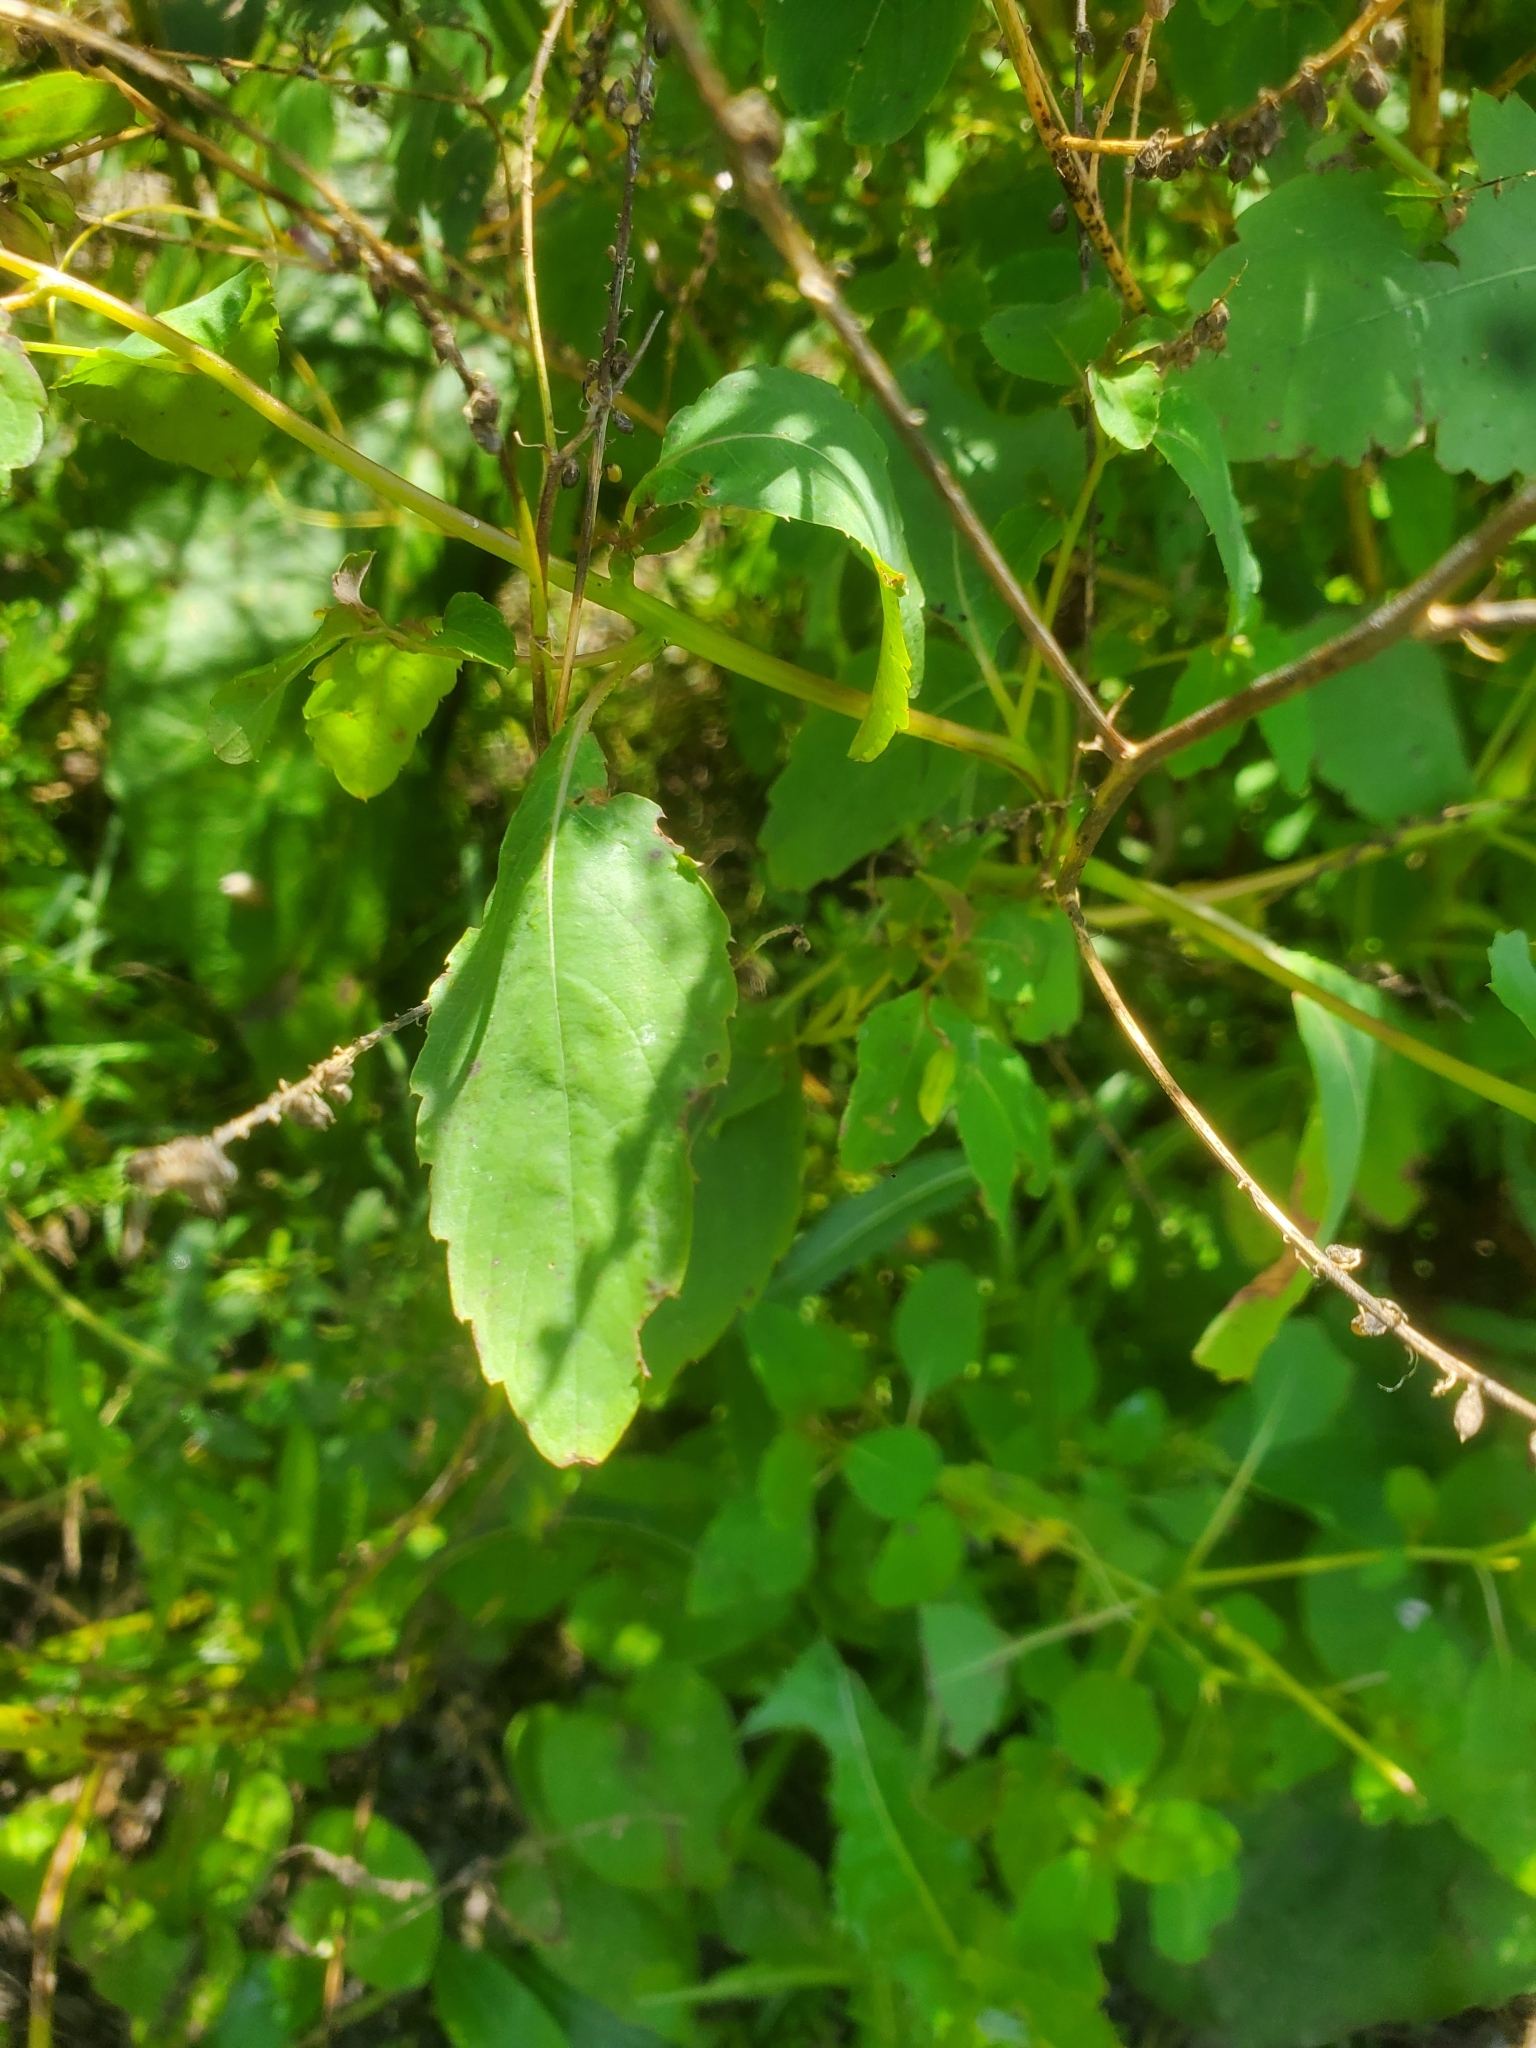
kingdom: Plantae
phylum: Tracheophyta
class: Magnoliopsida
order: Ericales
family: Balsaminaceae
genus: Impatiens
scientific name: Impatiens capensis
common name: Orange balsam
